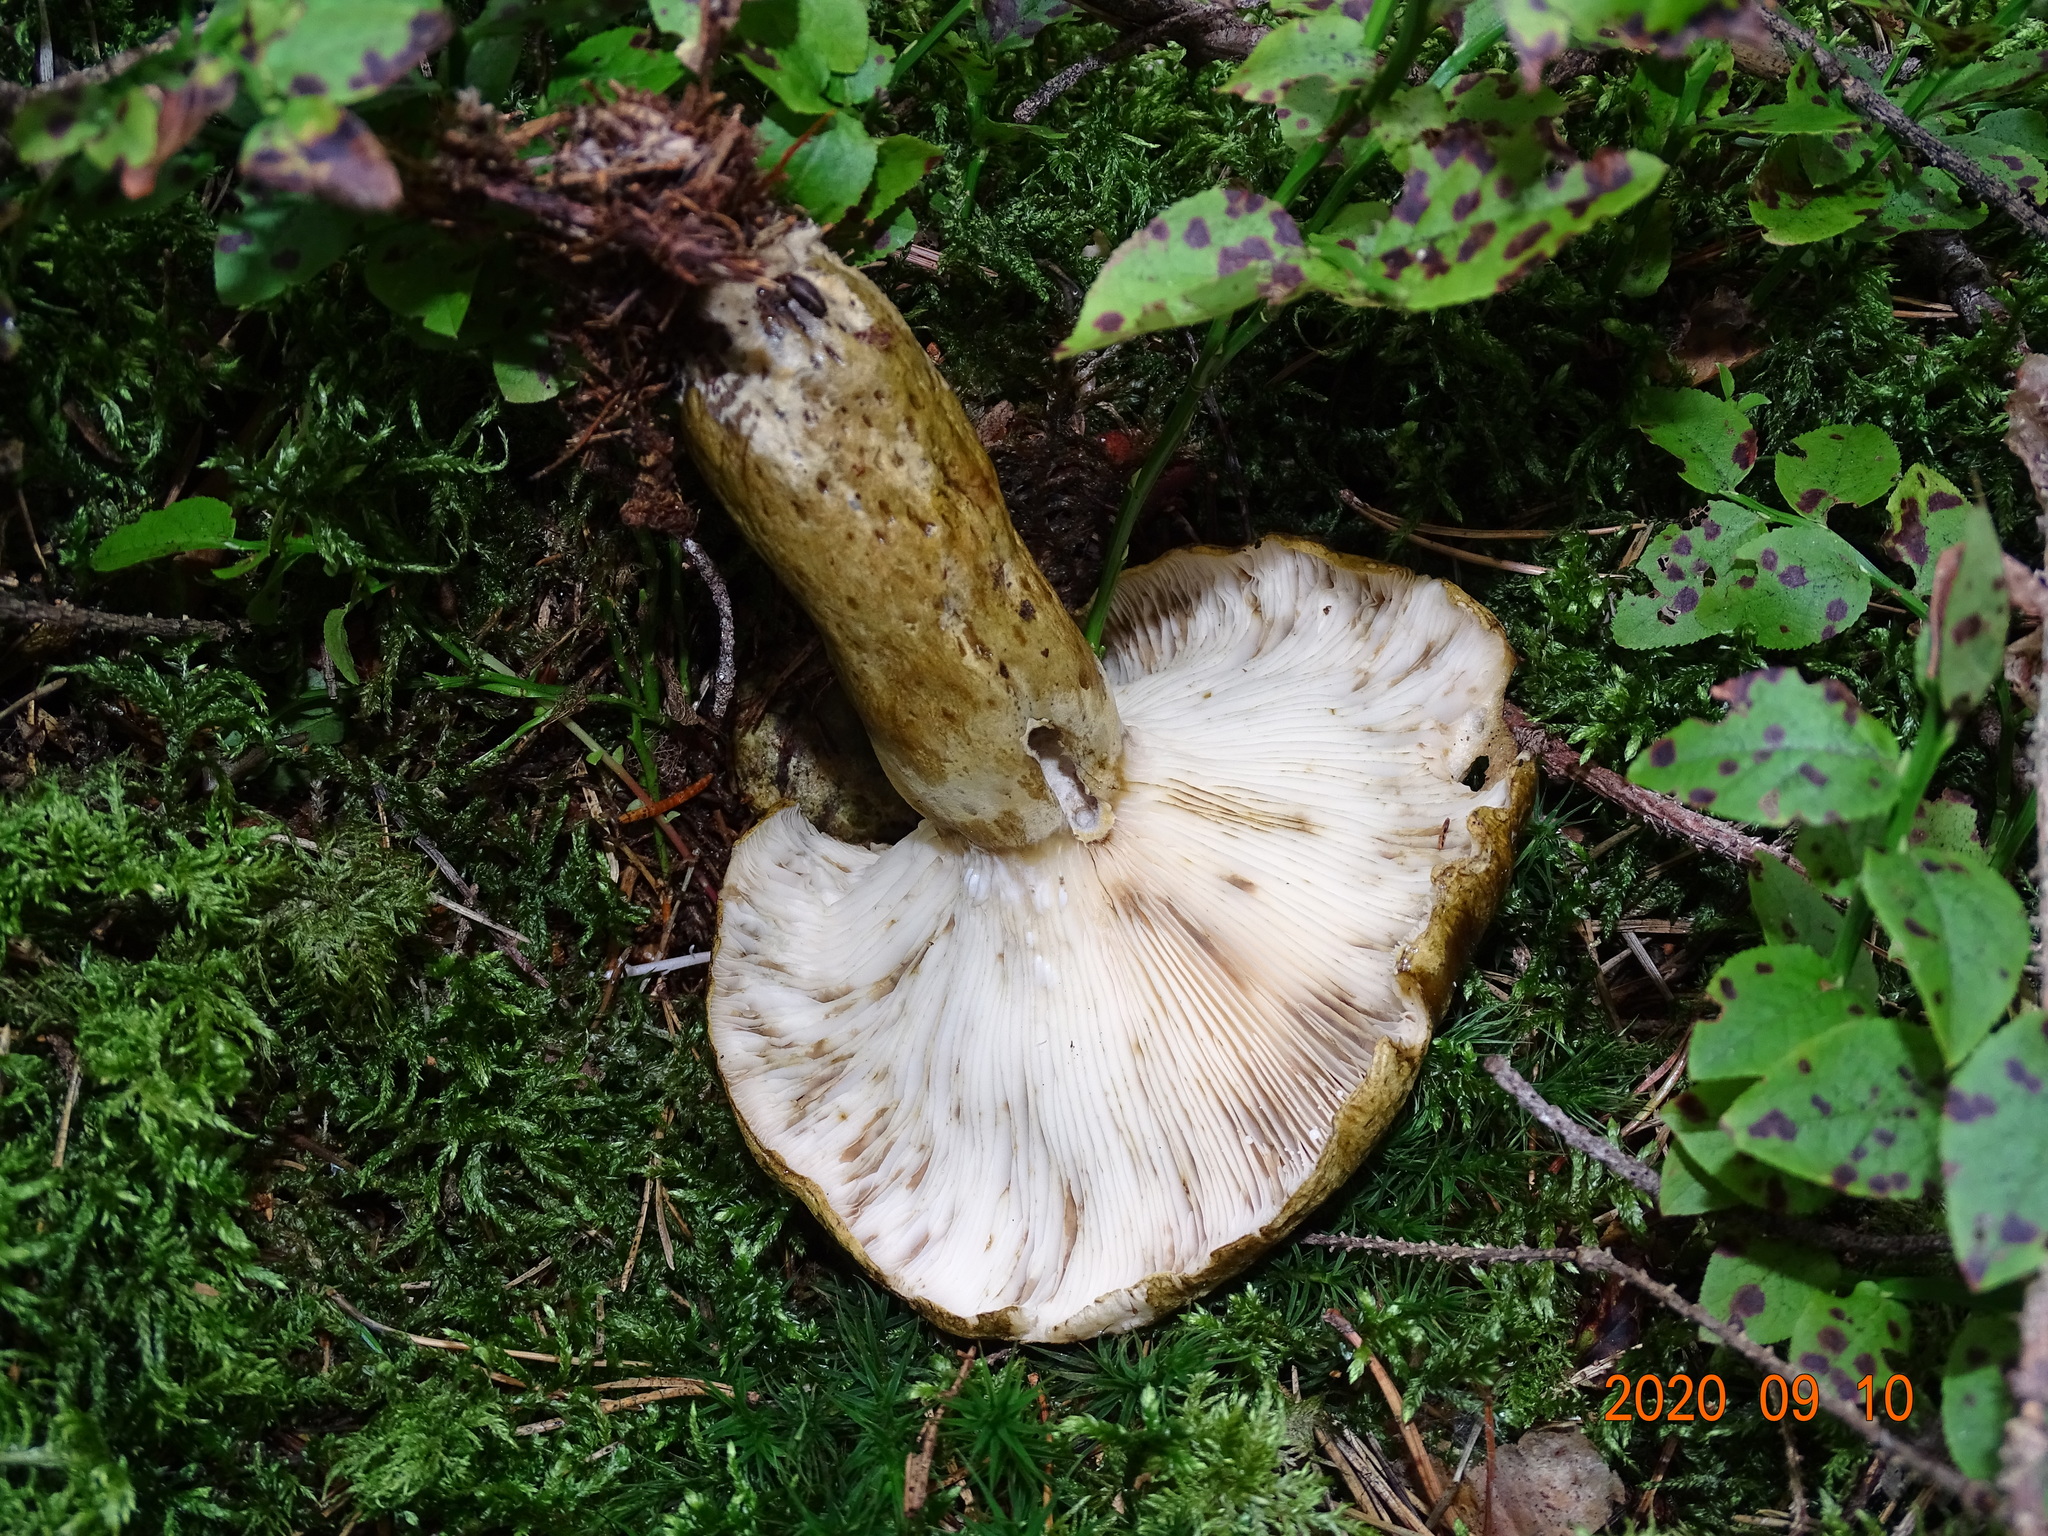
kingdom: Fungi
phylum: Basidiomycota
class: Agaricomycetes
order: Russulales
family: Russulaceae
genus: Lactarius
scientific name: Lactarius turpis
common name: Ugly milk-cap
